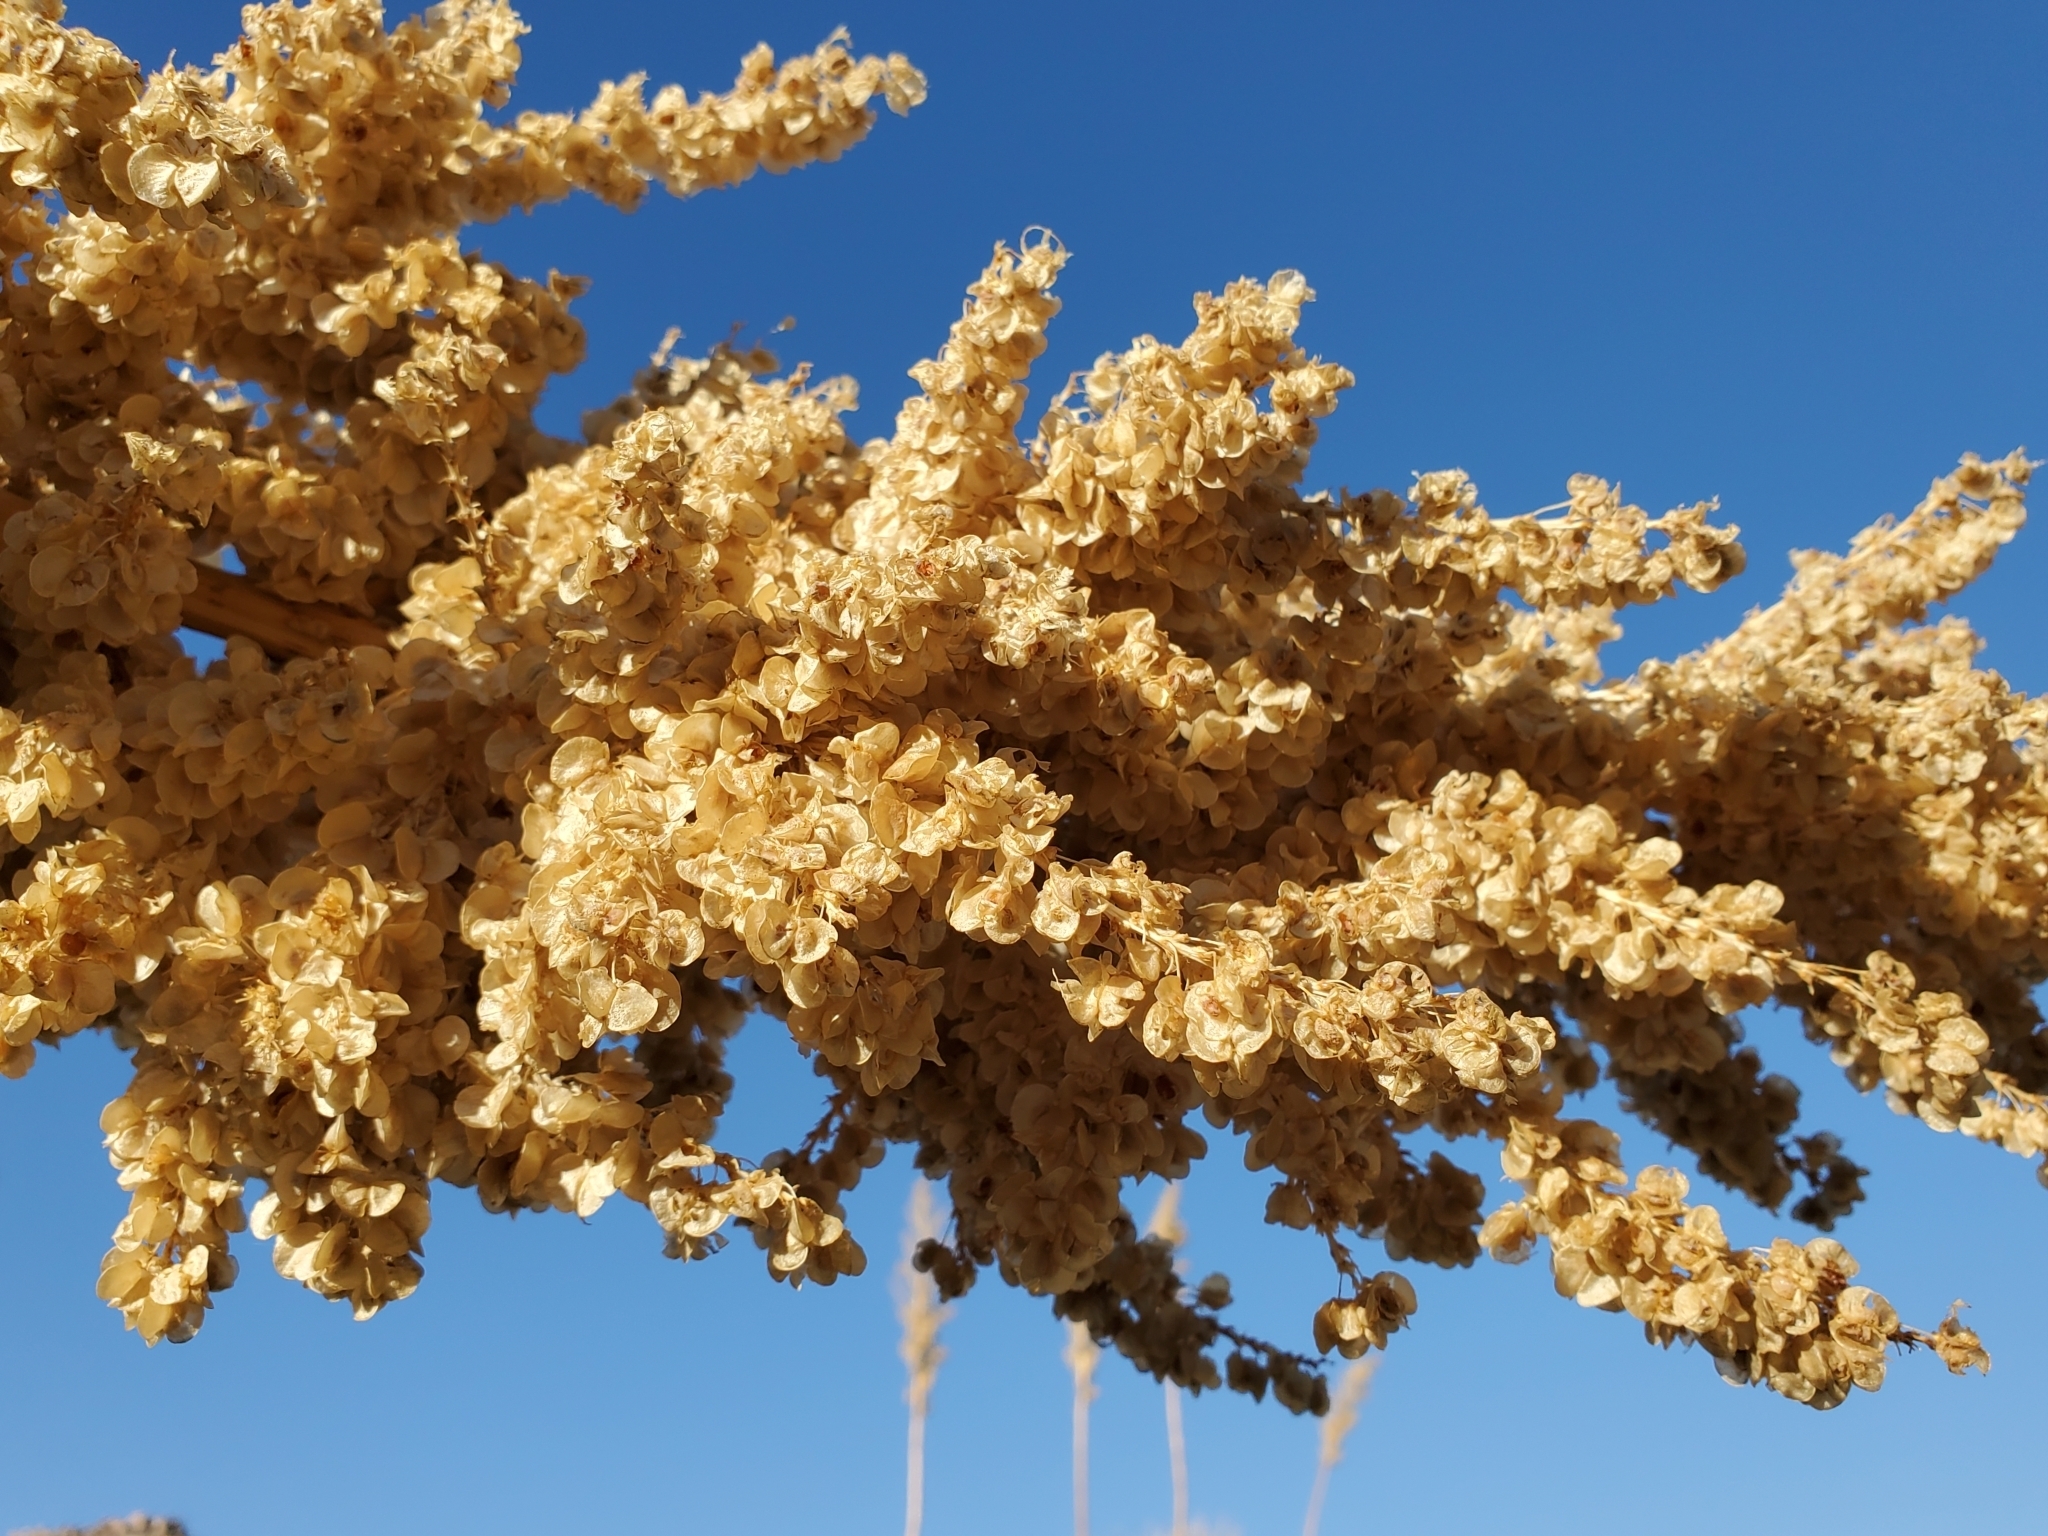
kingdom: Plantae
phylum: Tracheophyta
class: Liliopsida
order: Asparagales
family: Asparagaceae
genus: Nolina
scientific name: Nolina bigelovii
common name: Bigelow bear-grass
